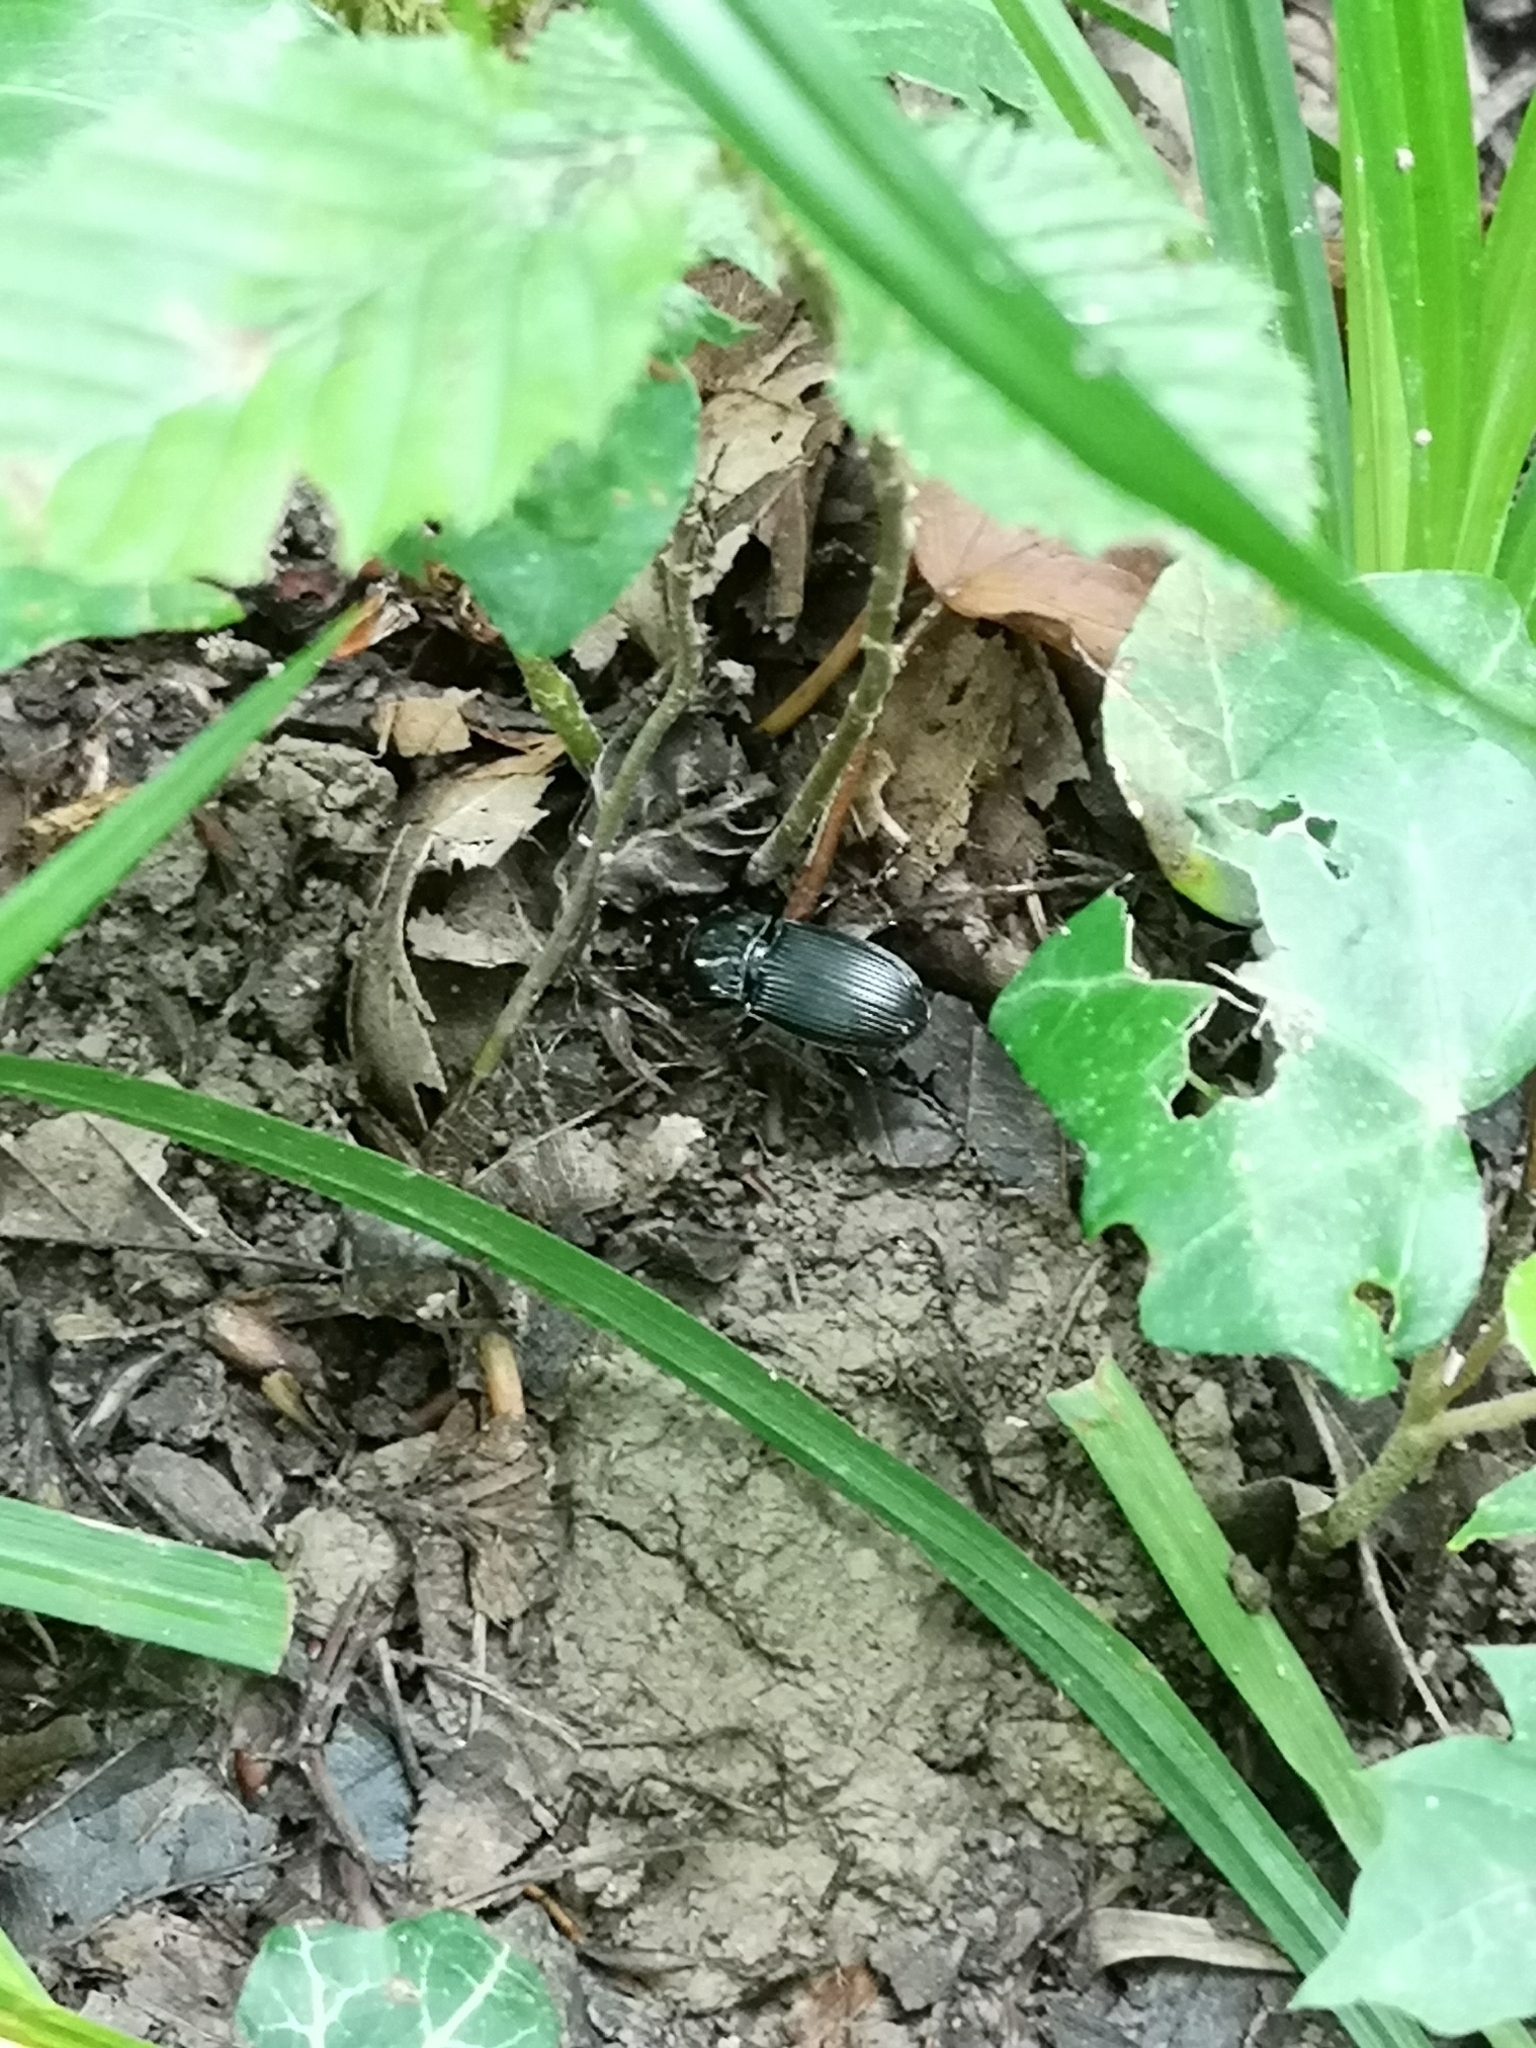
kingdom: Animalia
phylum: Arthropoda
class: Insecta
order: Coleoptera
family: Carabidae
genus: Pterostichus
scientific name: Pterostichus melanarius
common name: European dark harp ground beetle
